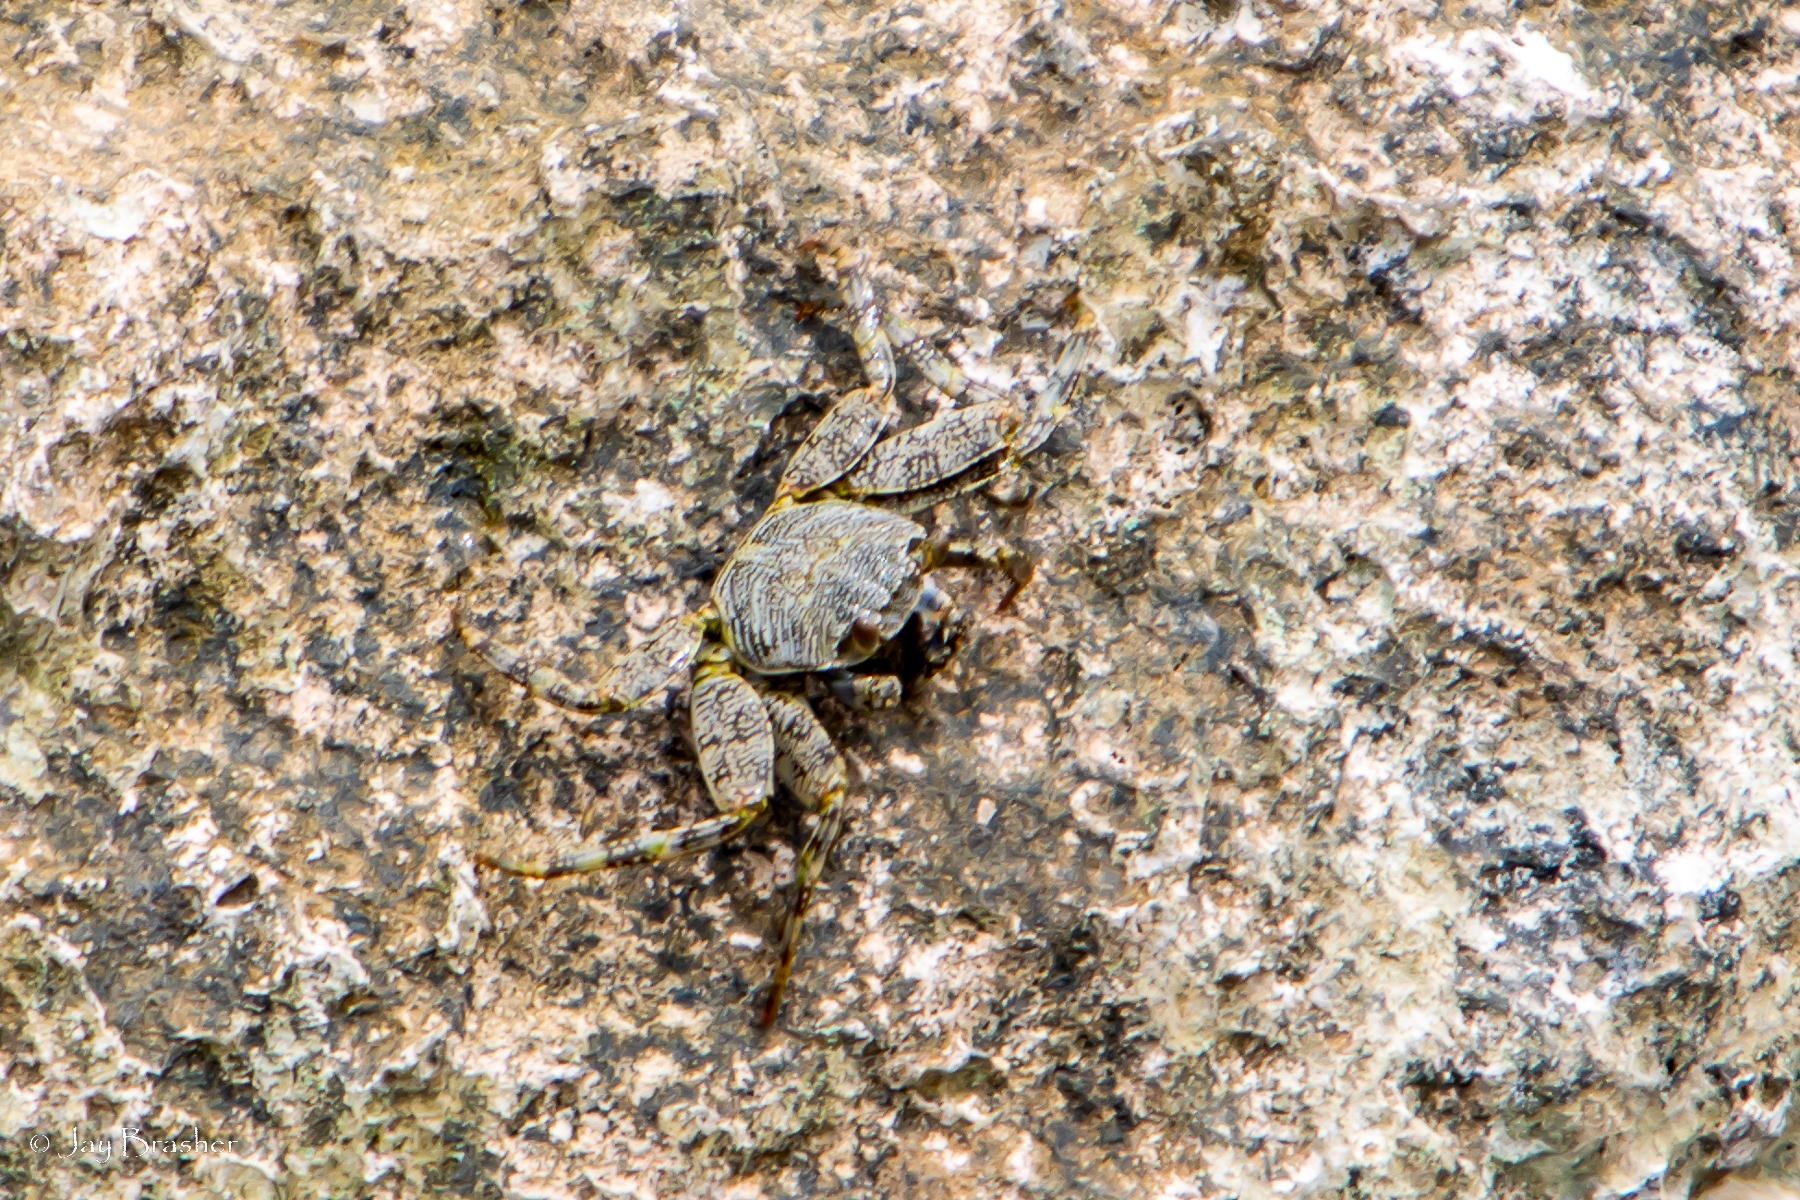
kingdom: Animalia
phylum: Arthropoda
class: Malacostraca
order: Decapoda
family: Grapsidae
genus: Grapsus
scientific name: Grapsus grapsus
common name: Sally lightfoot
